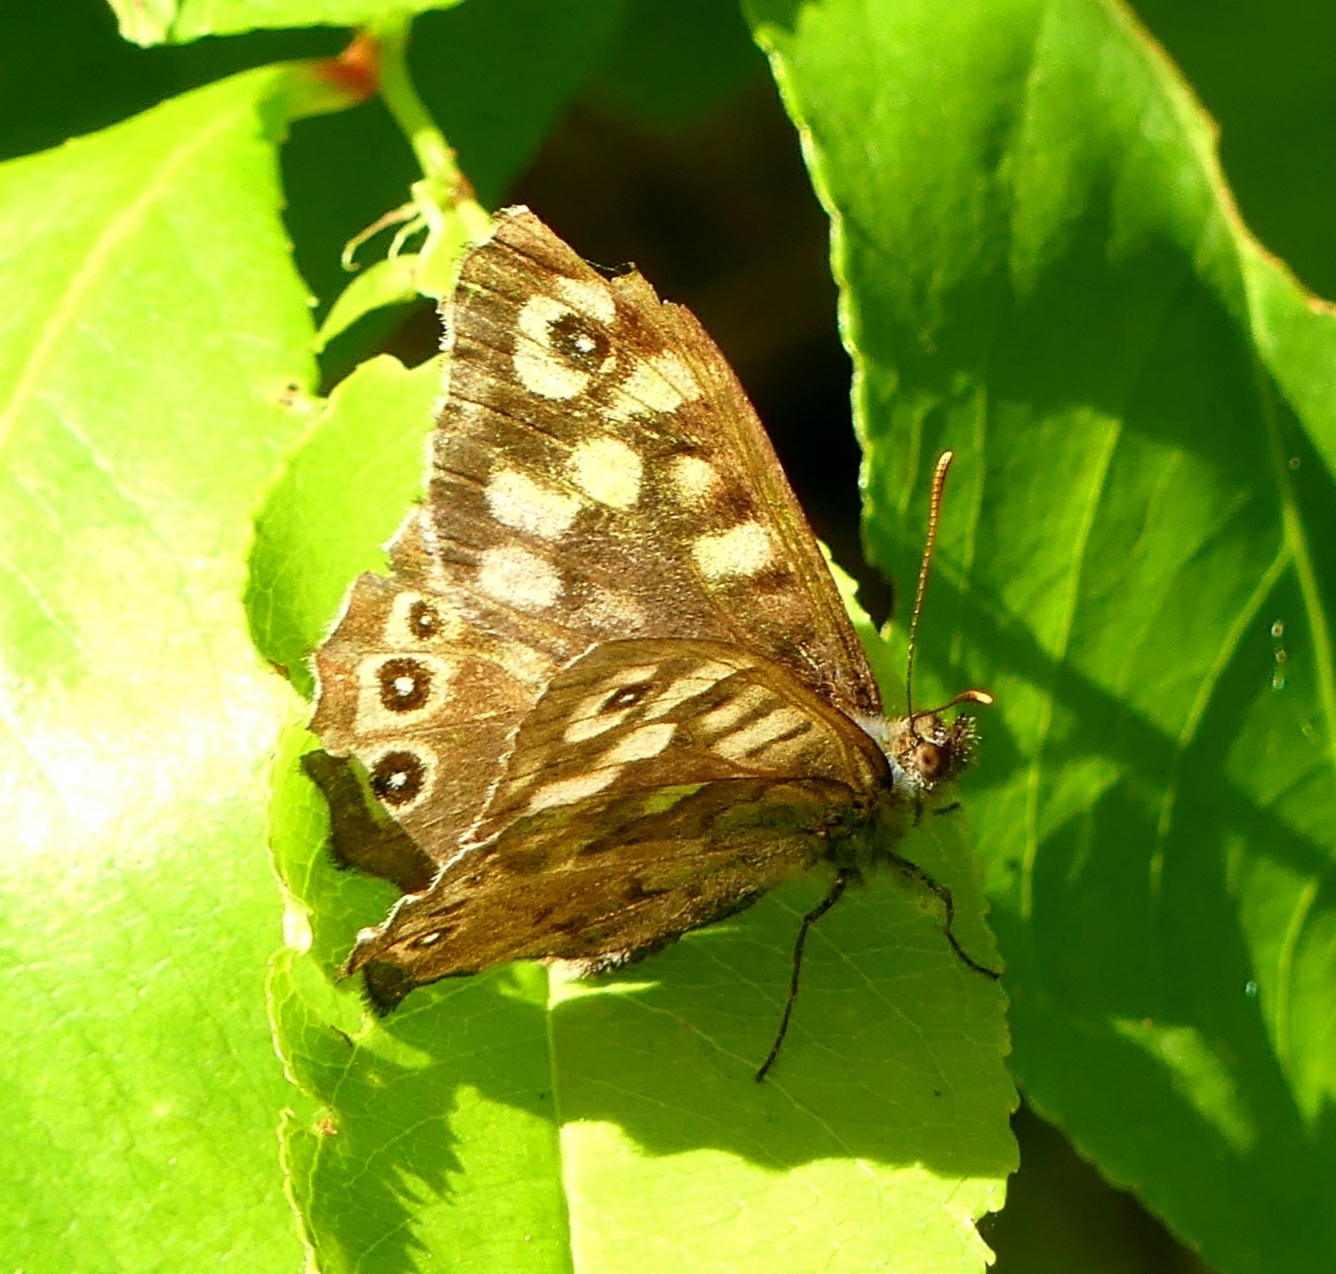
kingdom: Animalia
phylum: Arthropoda
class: Insecta
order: Lepidoptera
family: Nymphalidae
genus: Pararge
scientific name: Pararge aegeria
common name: Speckled wood
